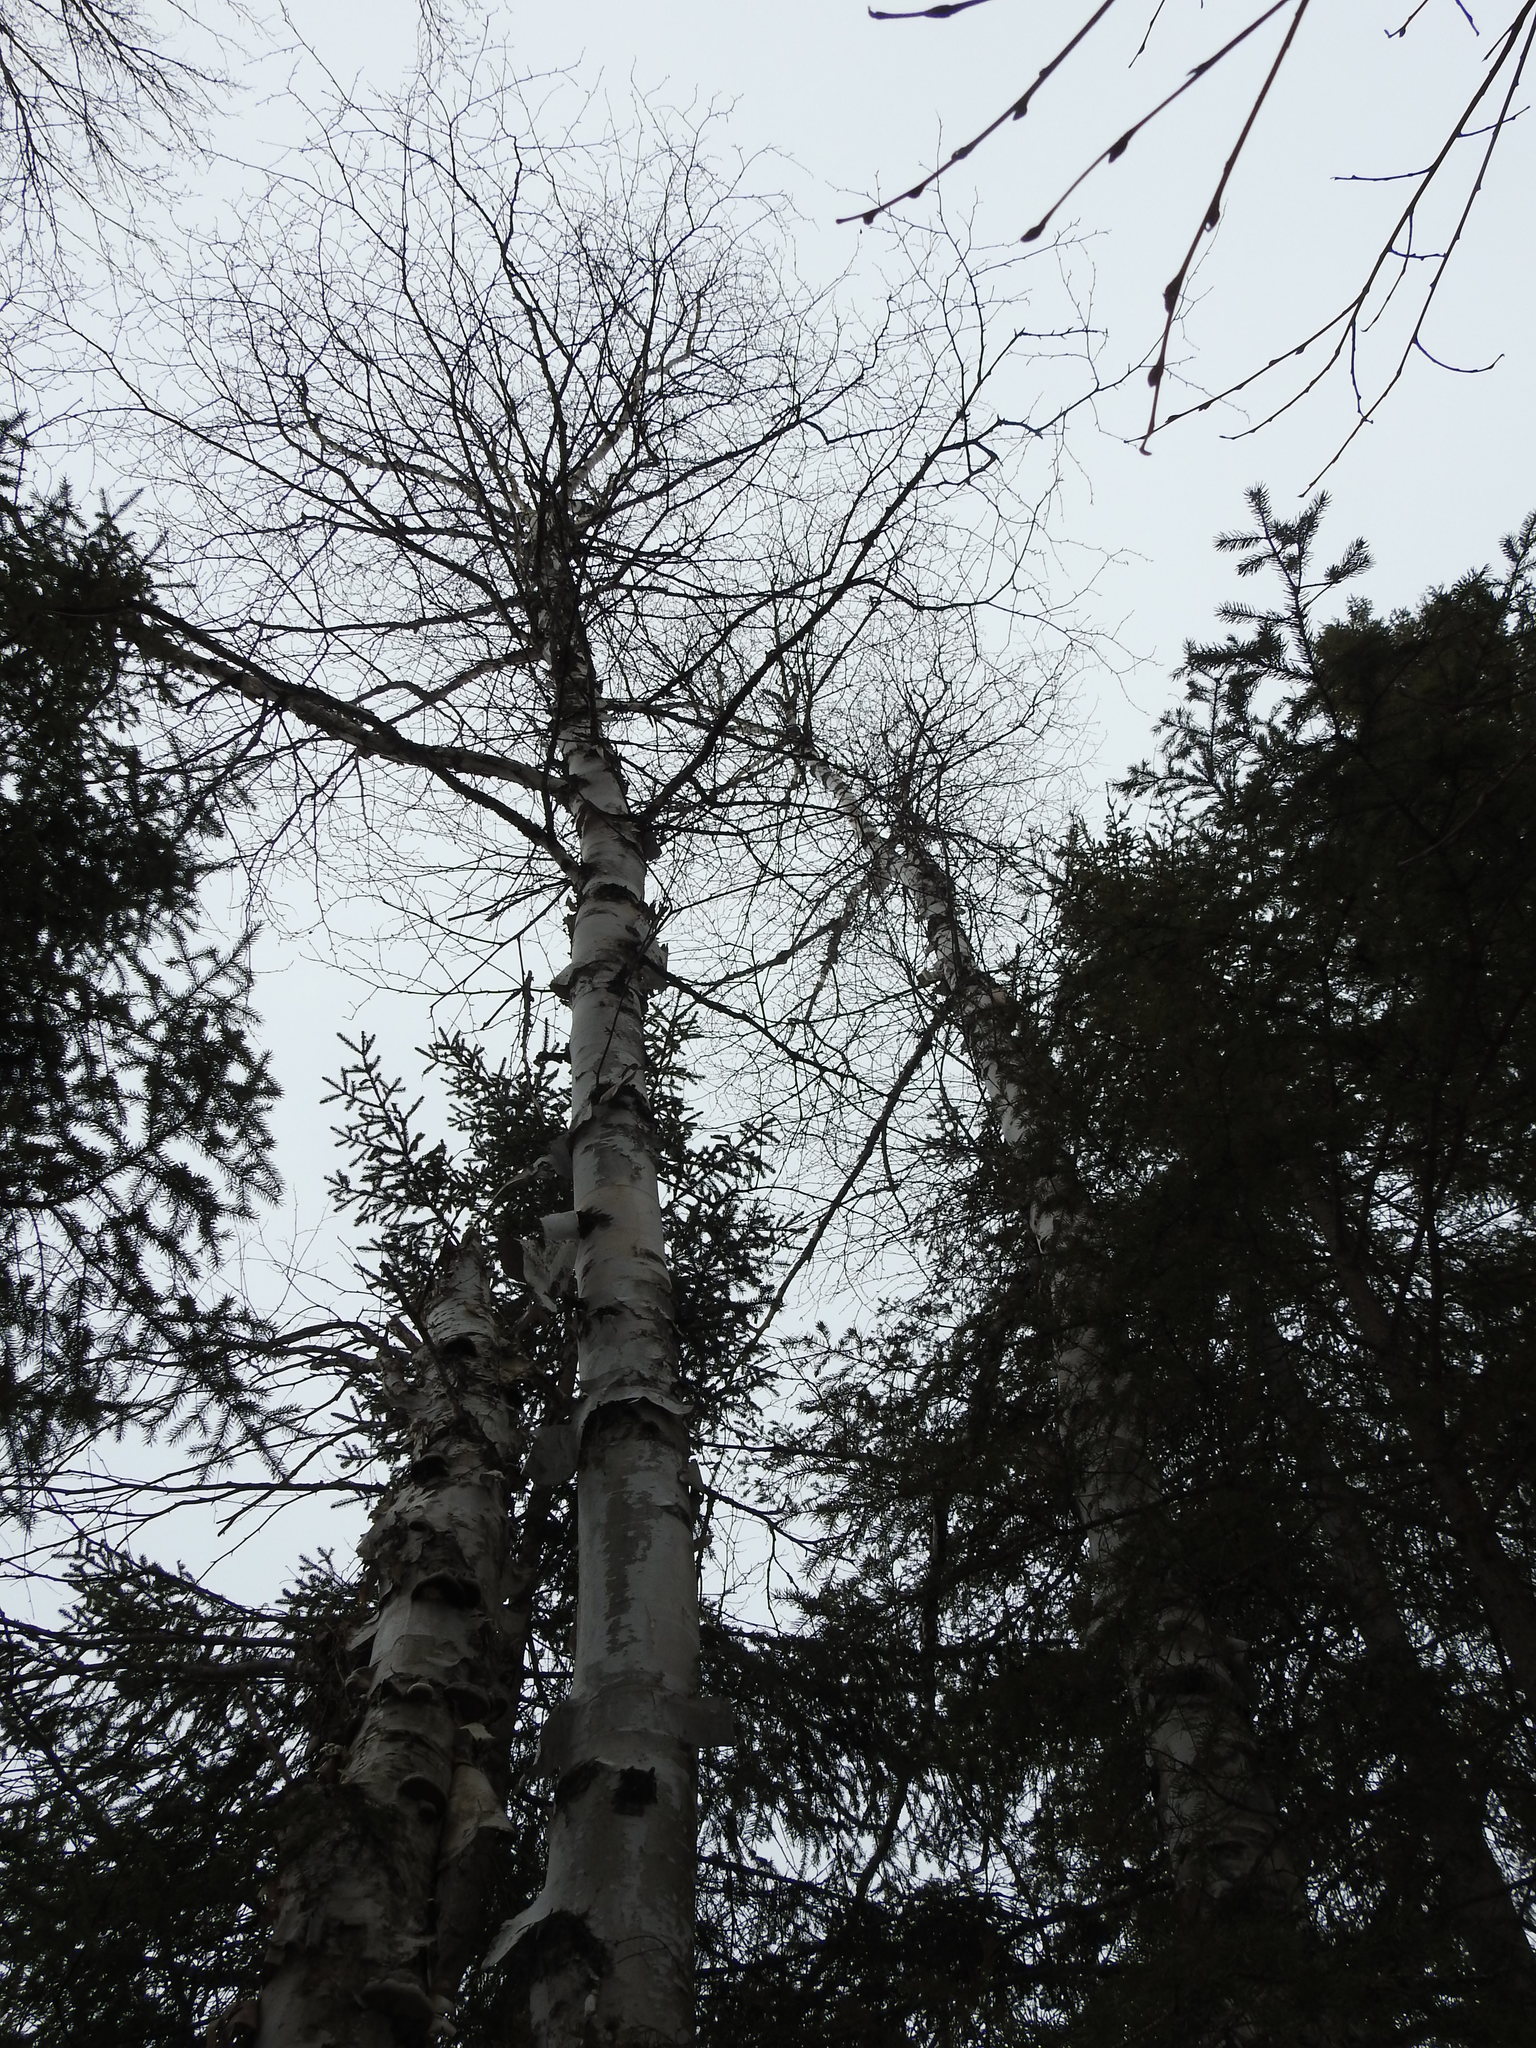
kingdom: Plantae
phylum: Tracheophyta
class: Magnoliopsida
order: Fagales
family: Betulaceae
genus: Betula
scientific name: Betula papyrifera
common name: Paper birch
